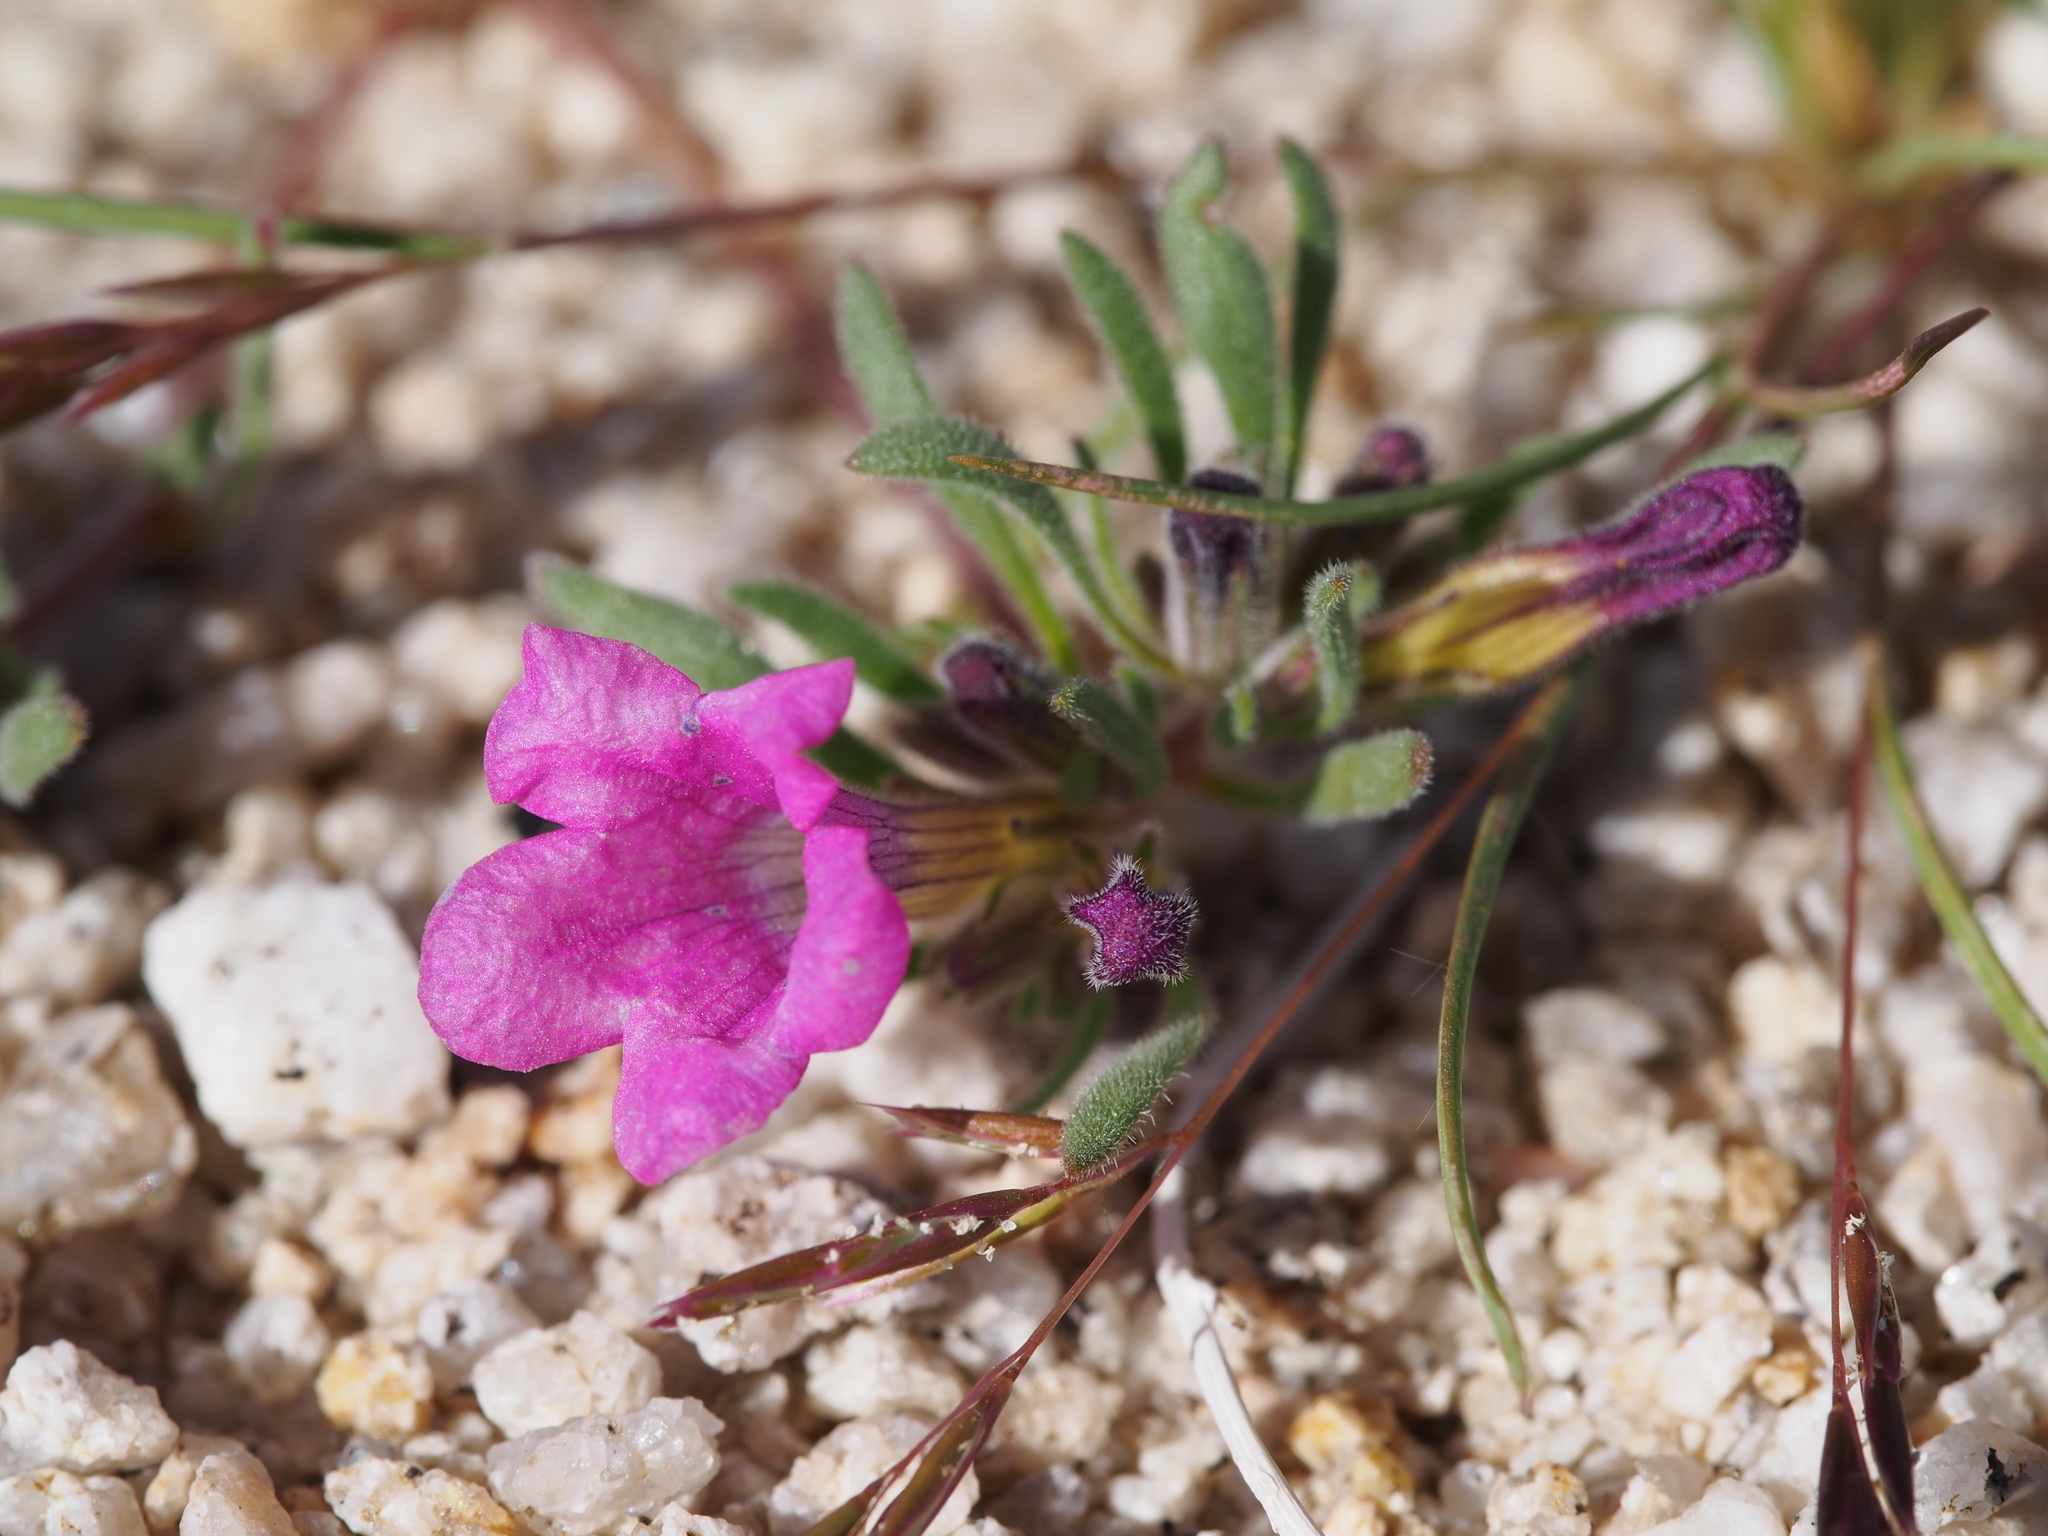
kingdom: Plantae
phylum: Tracheophyta
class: Magnoliopsida
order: Boraginales
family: Namaceae
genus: Nama
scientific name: Nama demissa
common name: Leafy nama
